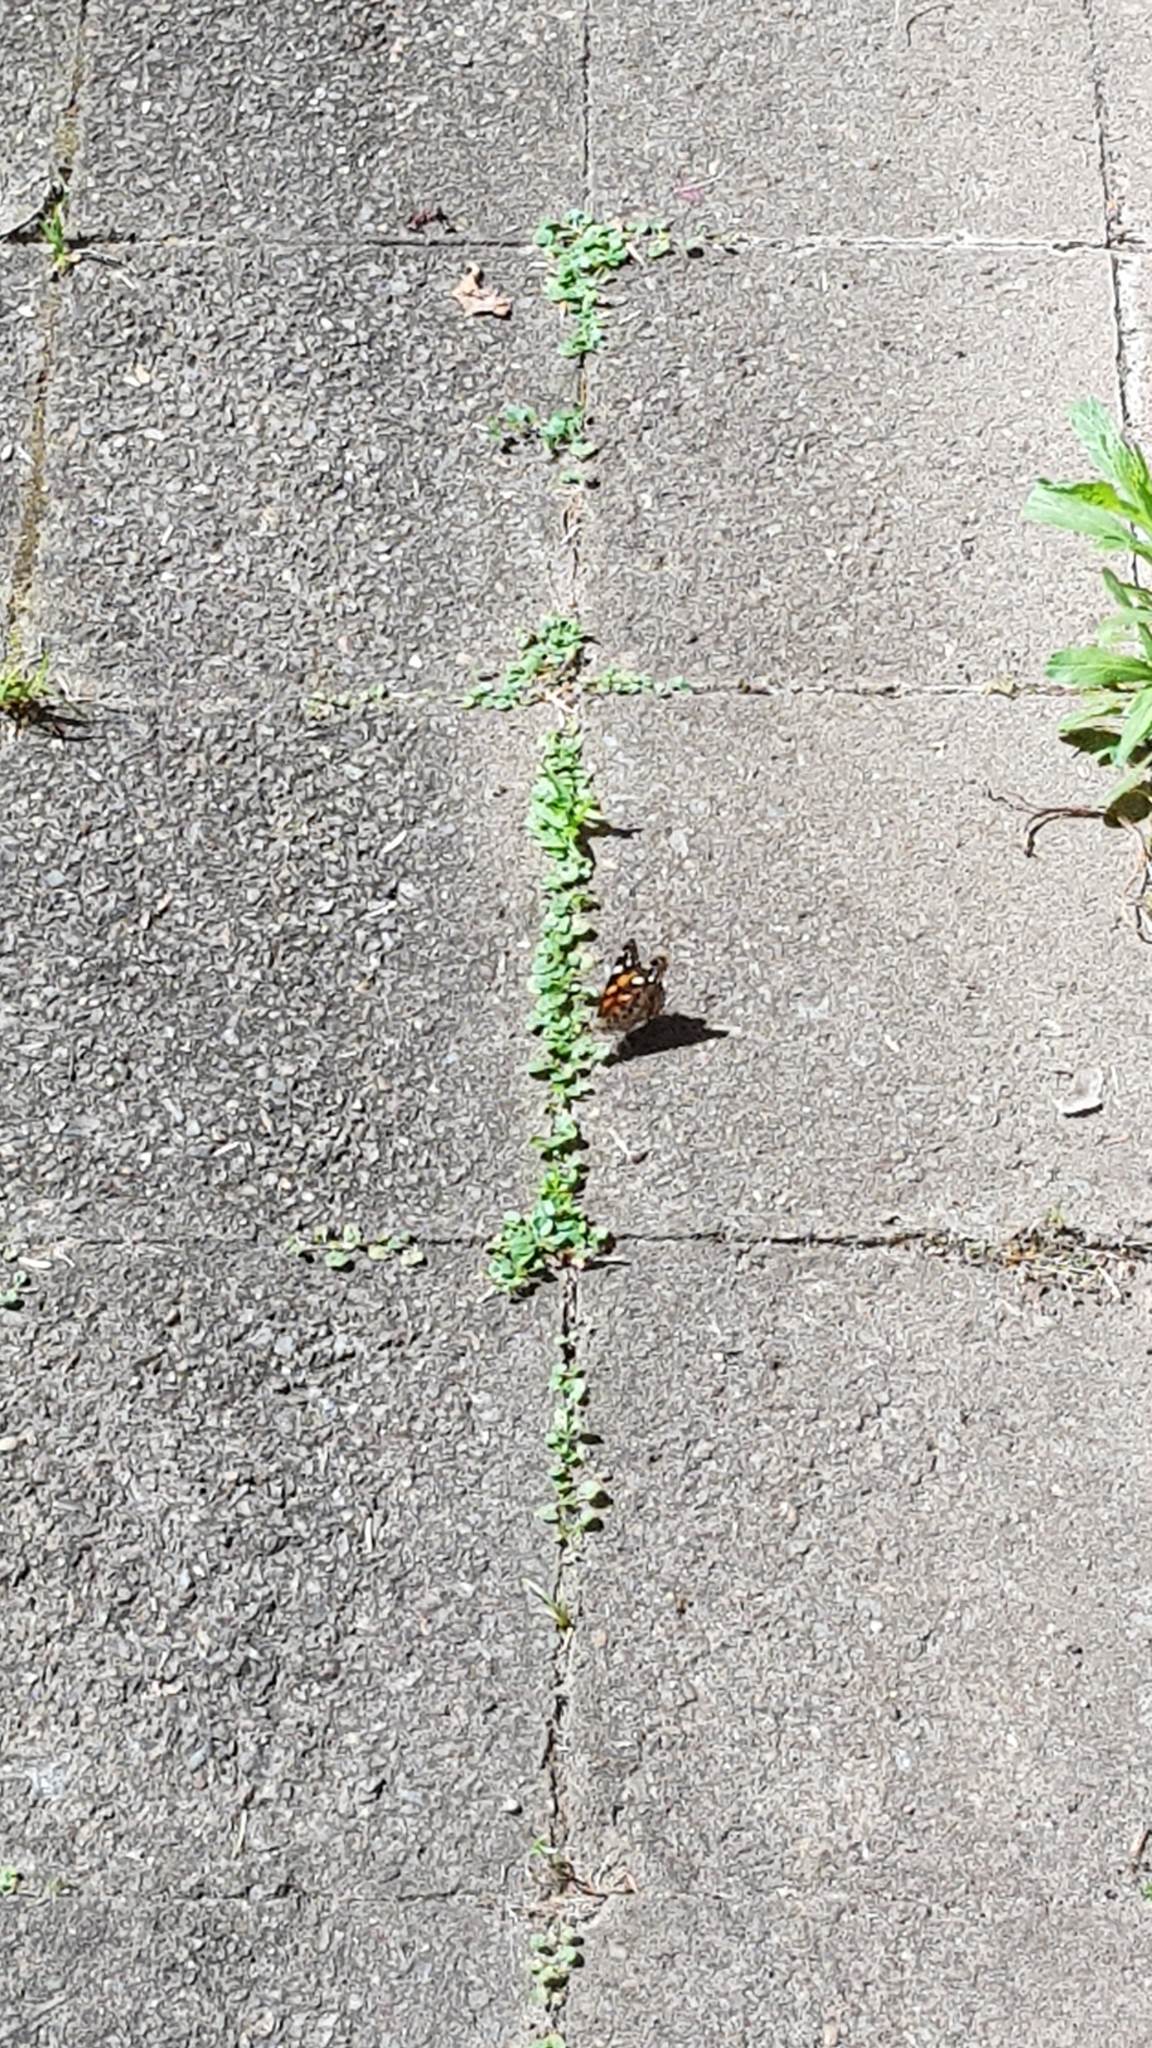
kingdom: Animalia
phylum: Arthropoda
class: Insecta
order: Lepidoptera
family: Nymphalidae
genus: Vanessa
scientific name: Vanessa kershawi
